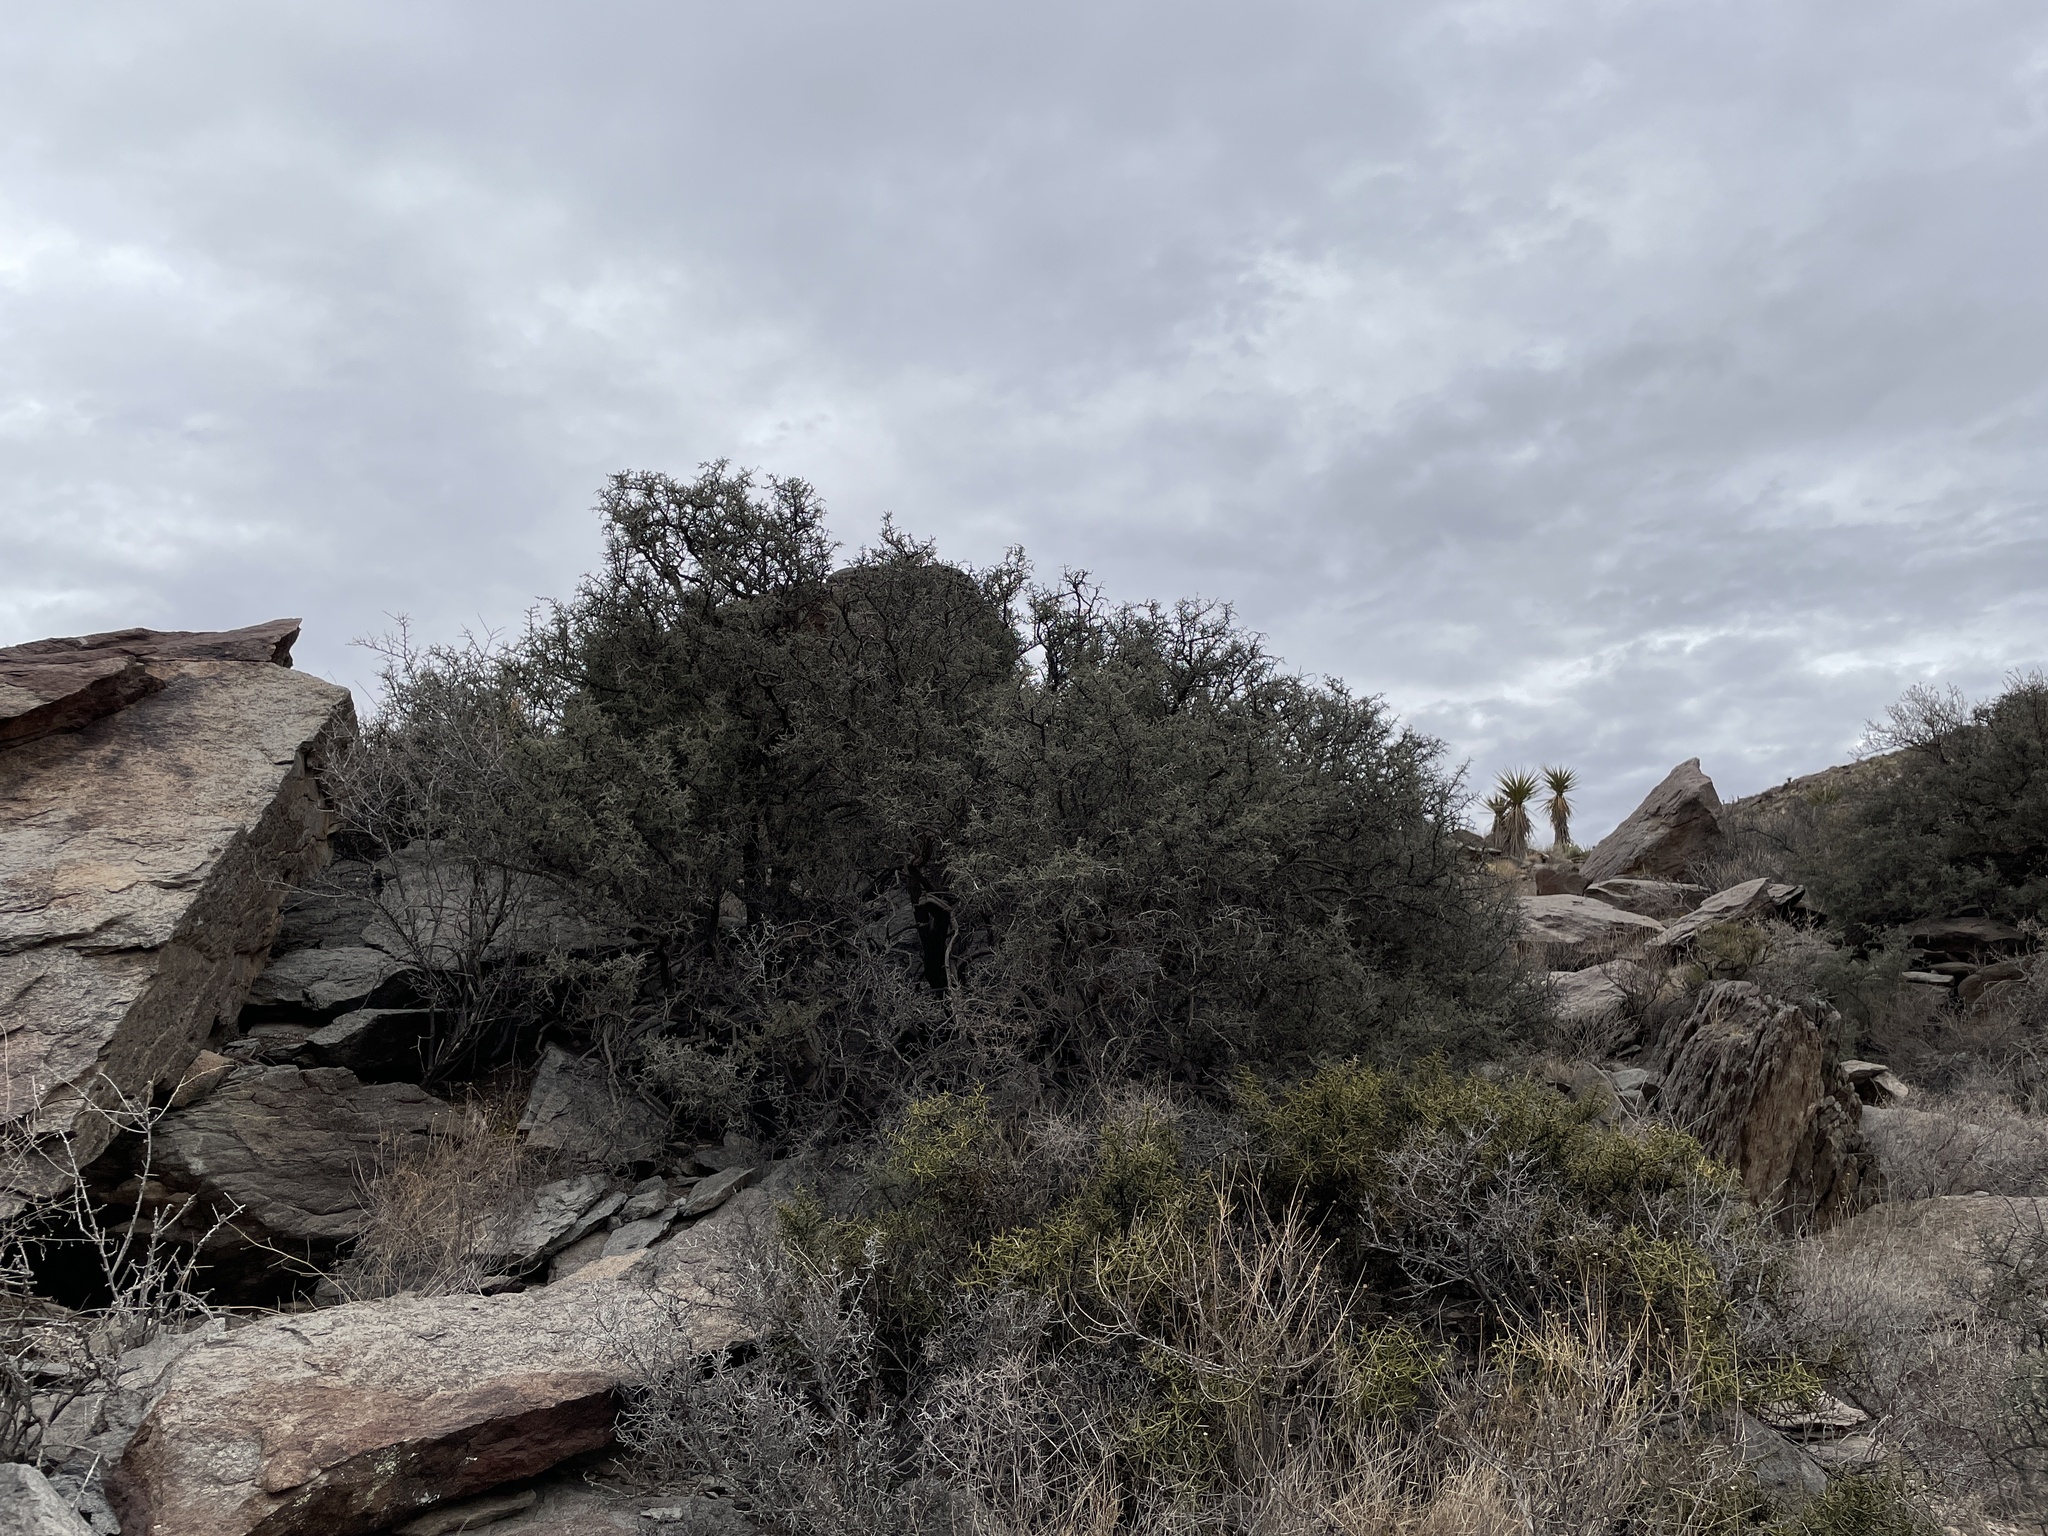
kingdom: Plantae
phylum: Tracheophyta
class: Magnoliopsida
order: Rosales
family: Rhamnaceae
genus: Condalia
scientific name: Condalia warnockii
